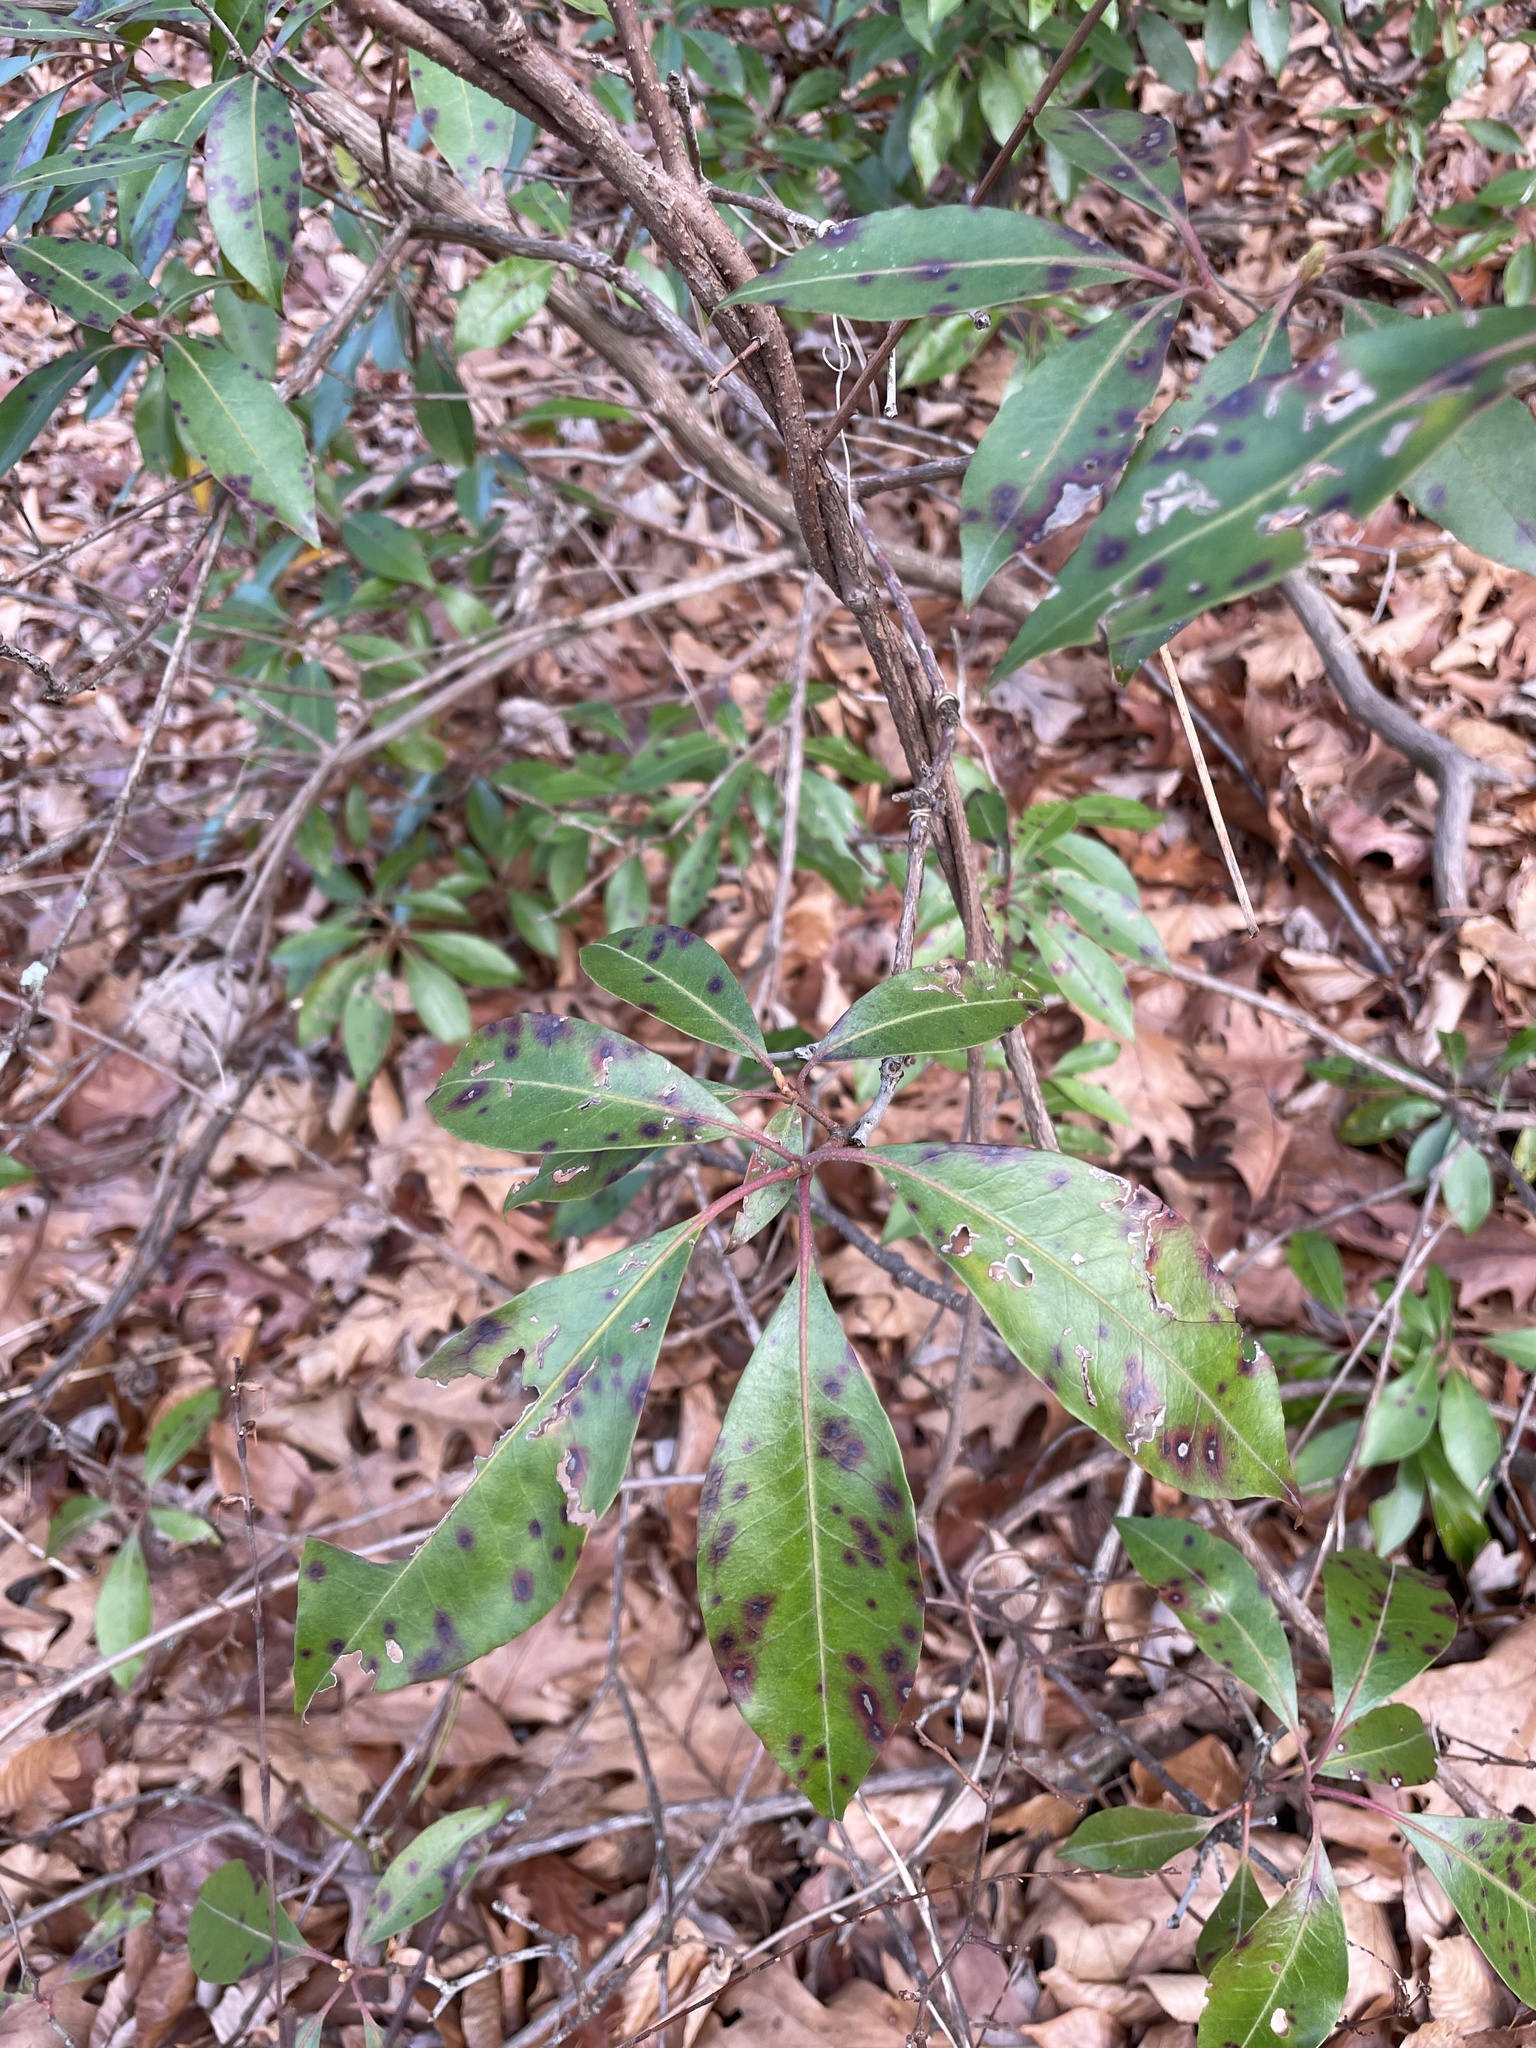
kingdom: Plantae
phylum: Tracheophyta
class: Magnoliopsida
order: Ericales
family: Ericaceae
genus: Kalmia
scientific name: Kalmia latifolia
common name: Mountain-laurel
